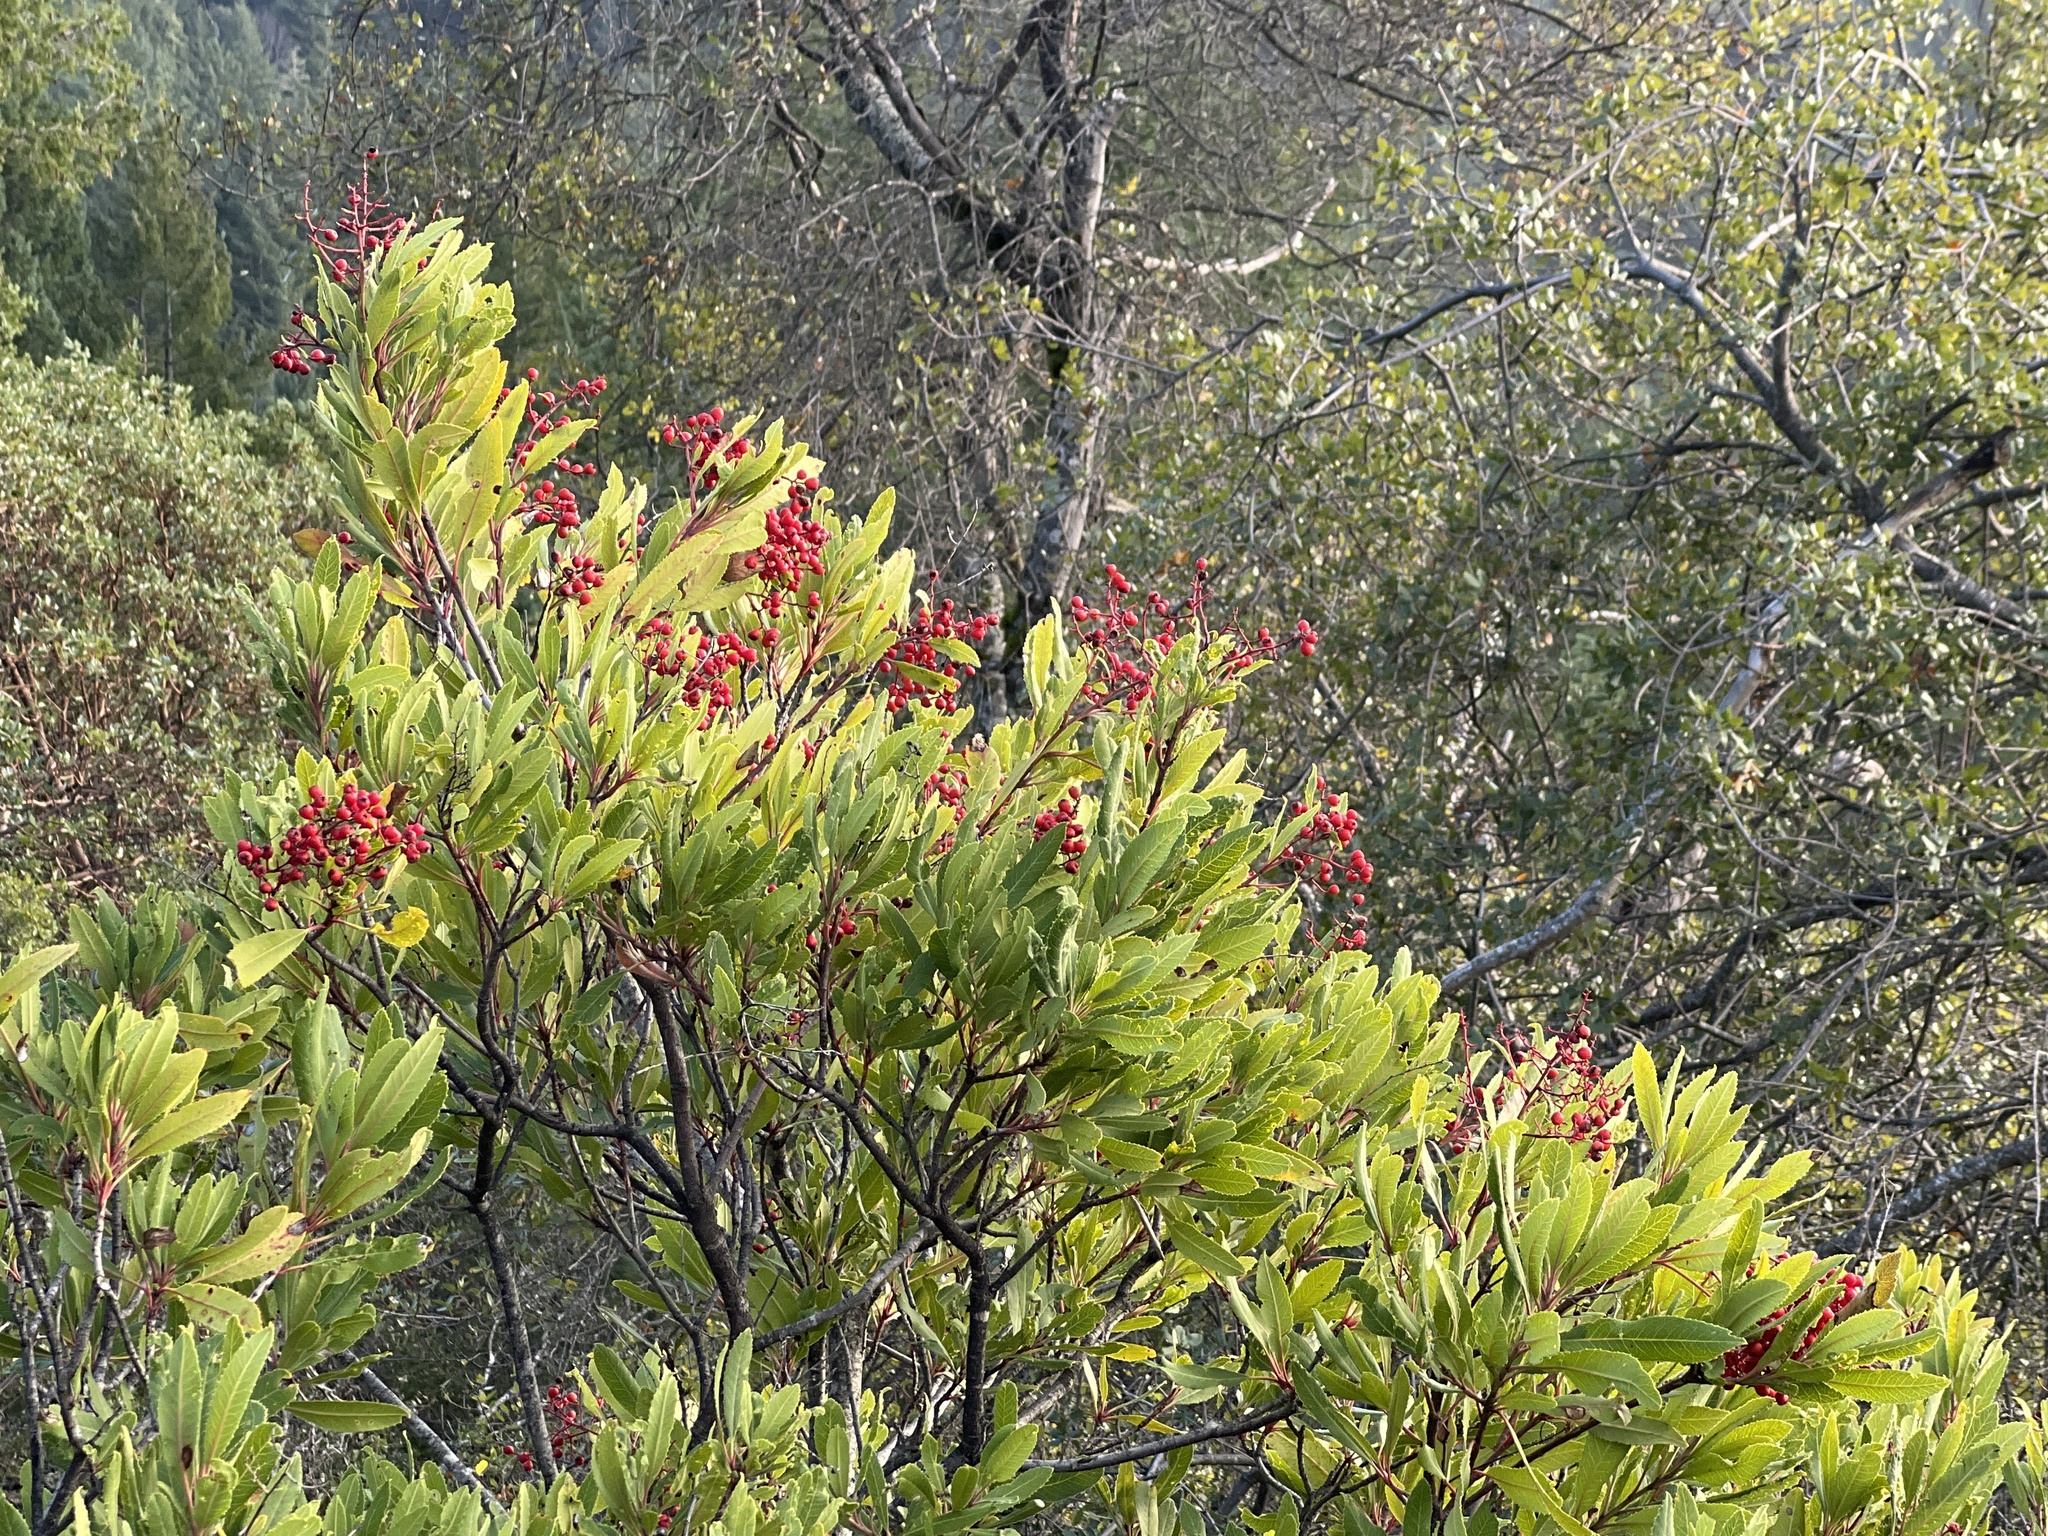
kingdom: Plantae
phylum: Tracheophyta
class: Magnoliopsida
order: Rosales
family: Rosaceae
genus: Heteromeles
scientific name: Heteromeles arbutifolia
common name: California-holly
